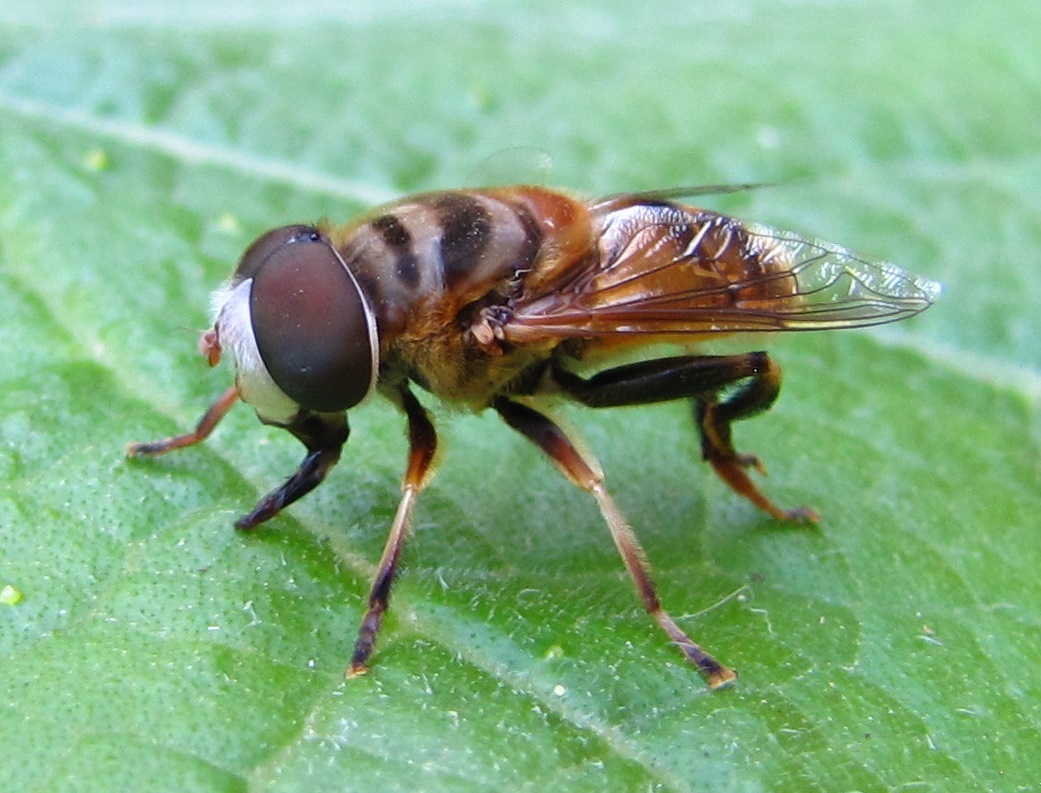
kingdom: Animalia
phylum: Arthropoda
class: Insecta
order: Diptera
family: Syrphidae
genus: Palpada
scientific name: Palpada vinetorum
